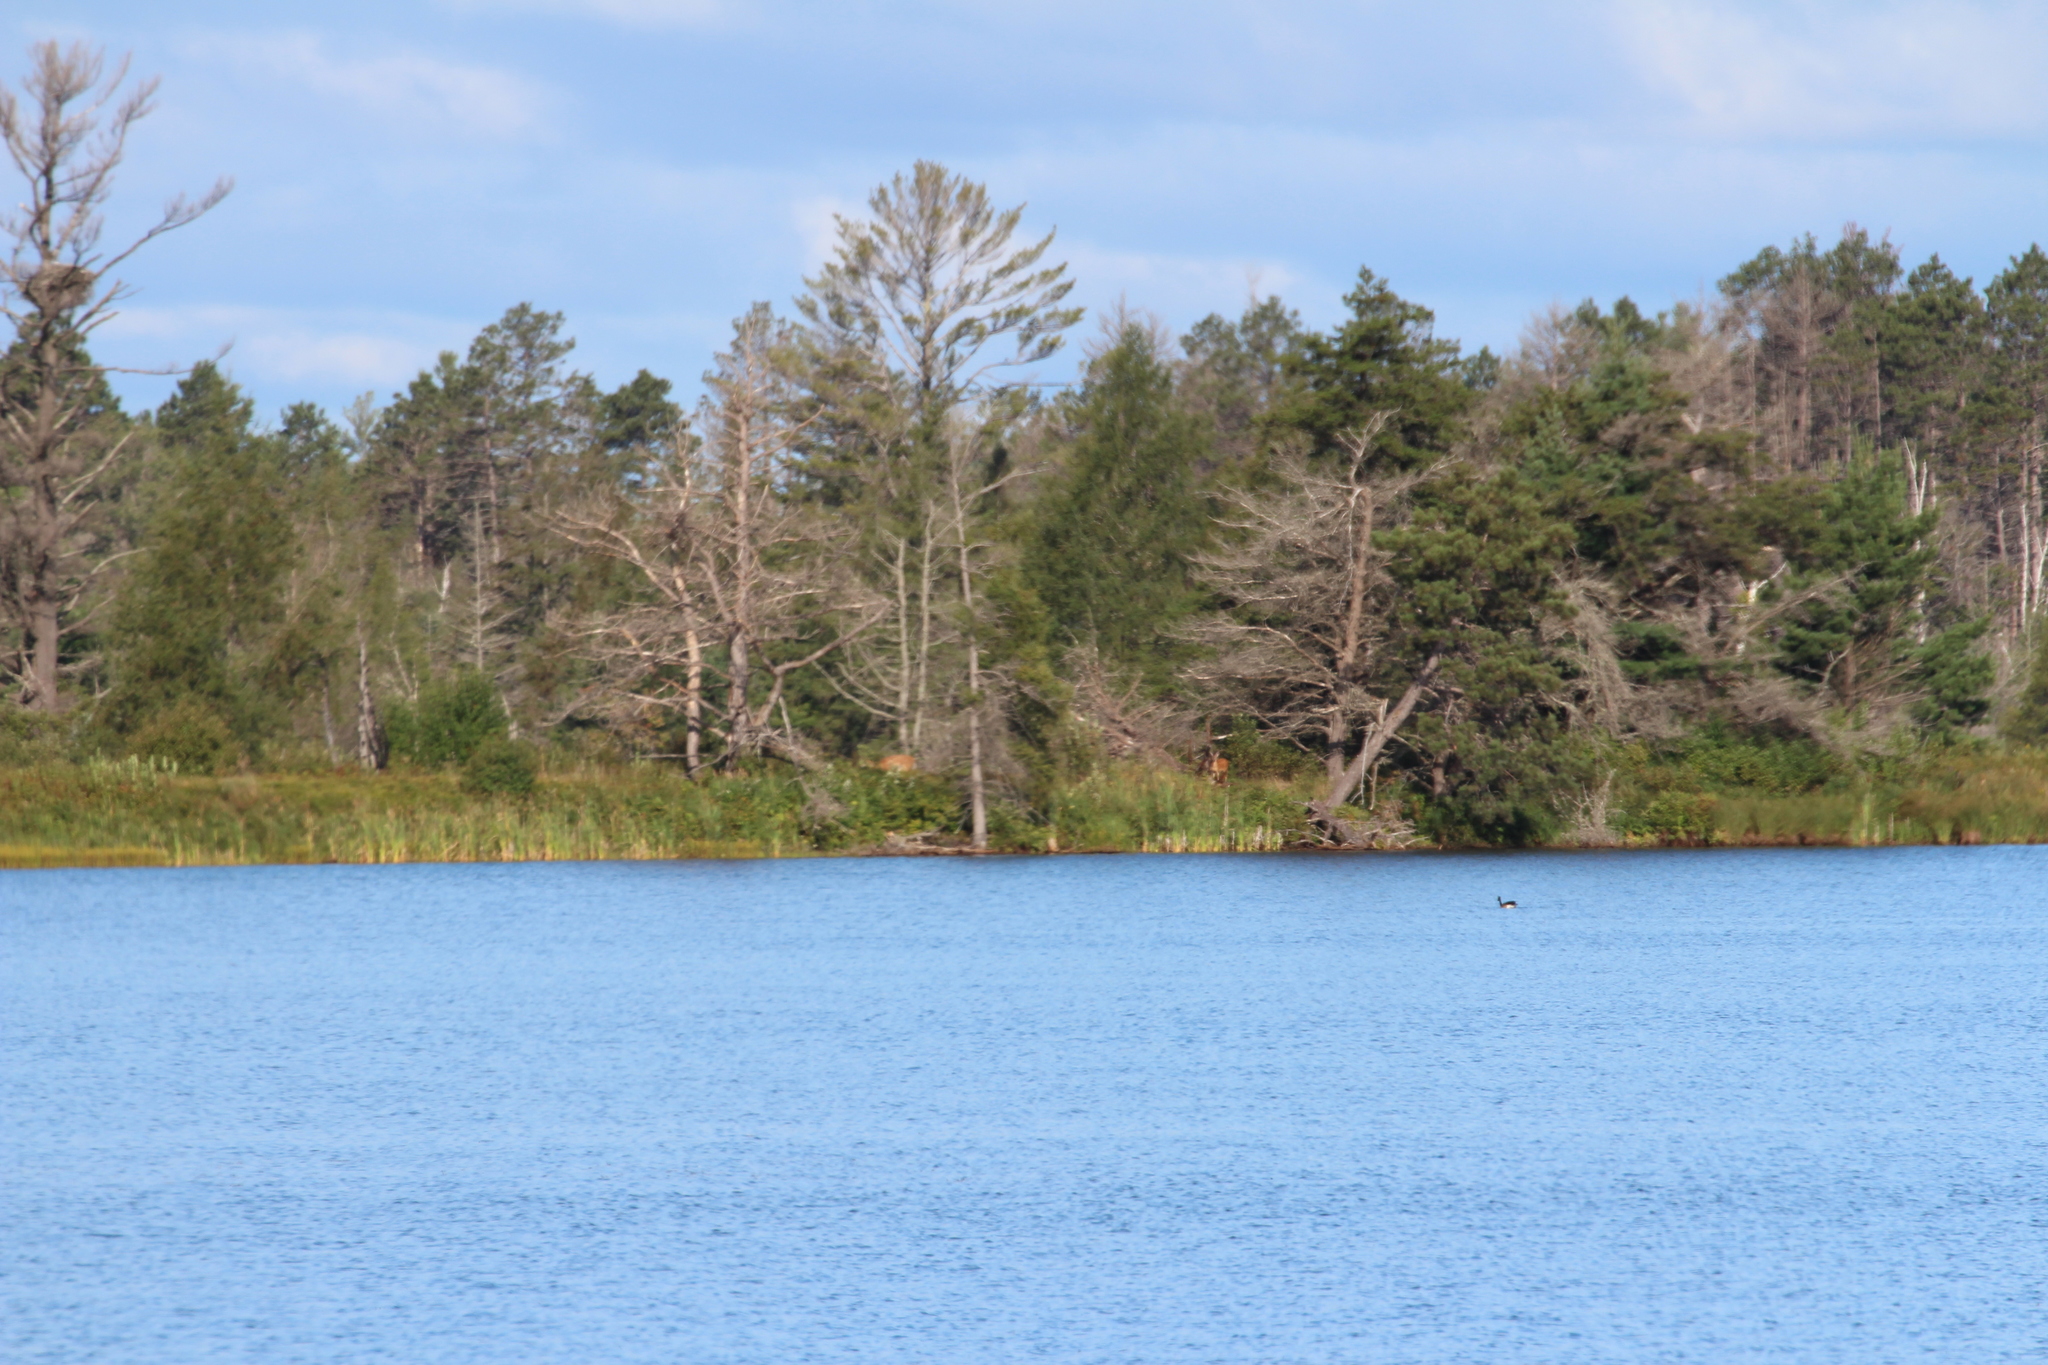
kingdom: Animalia
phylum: Chordata
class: Mammalia
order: Artiodactyla
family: Cervidae
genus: Odocoileus
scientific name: Odocoileus virginianus
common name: White-tailed deer
